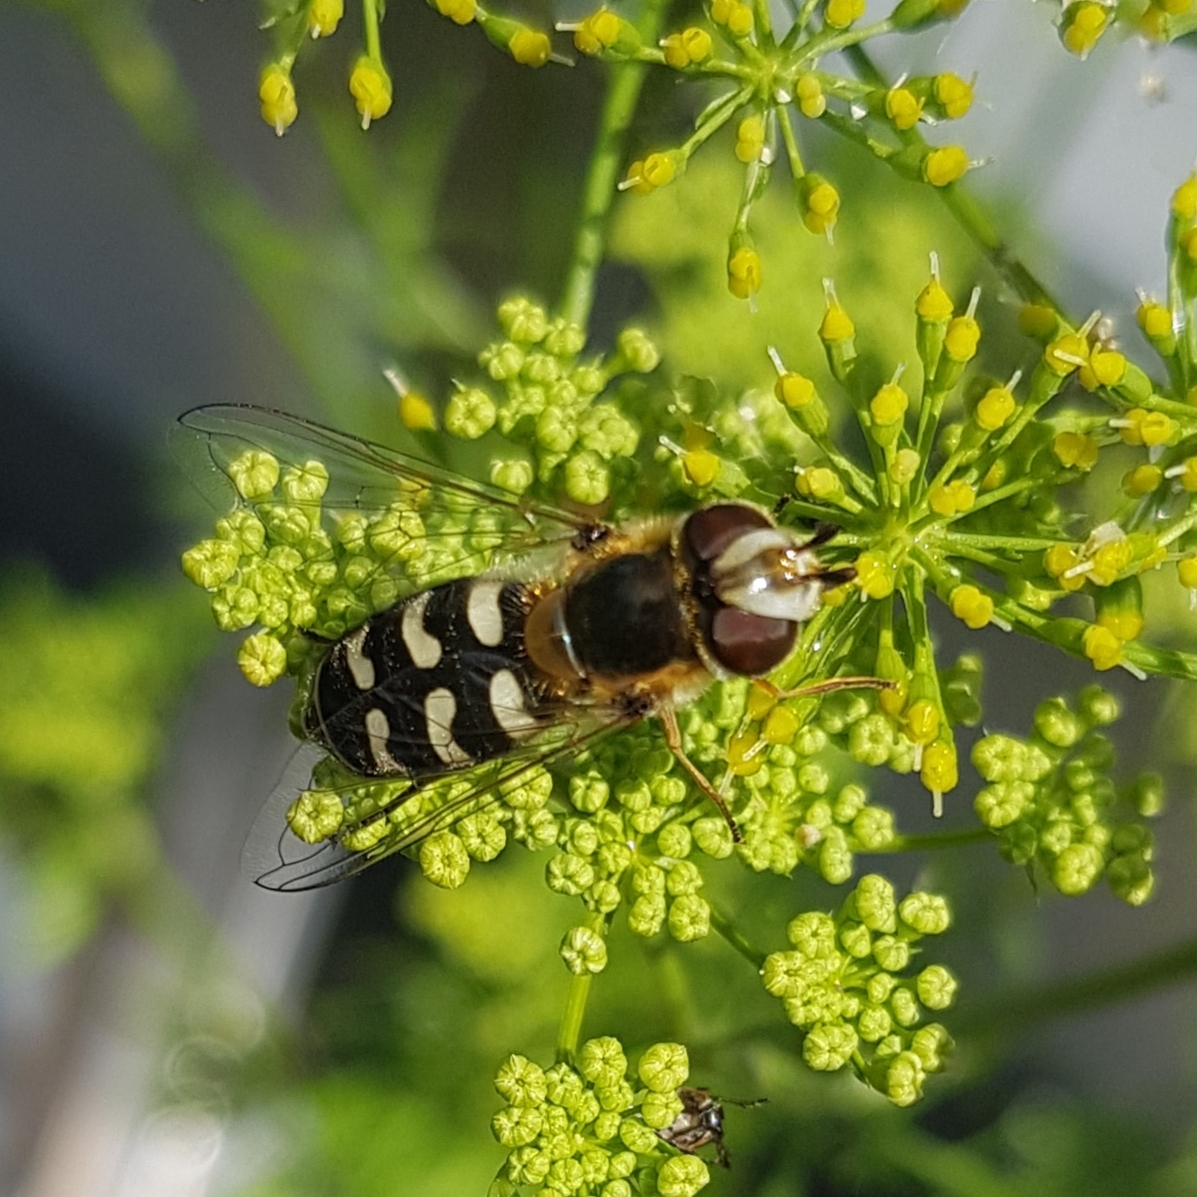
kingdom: Animalia
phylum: Arthropoda
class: Insecta
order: Diptera
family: Syrphidae
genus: Scaeva
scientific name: Scaeva pyrastri
